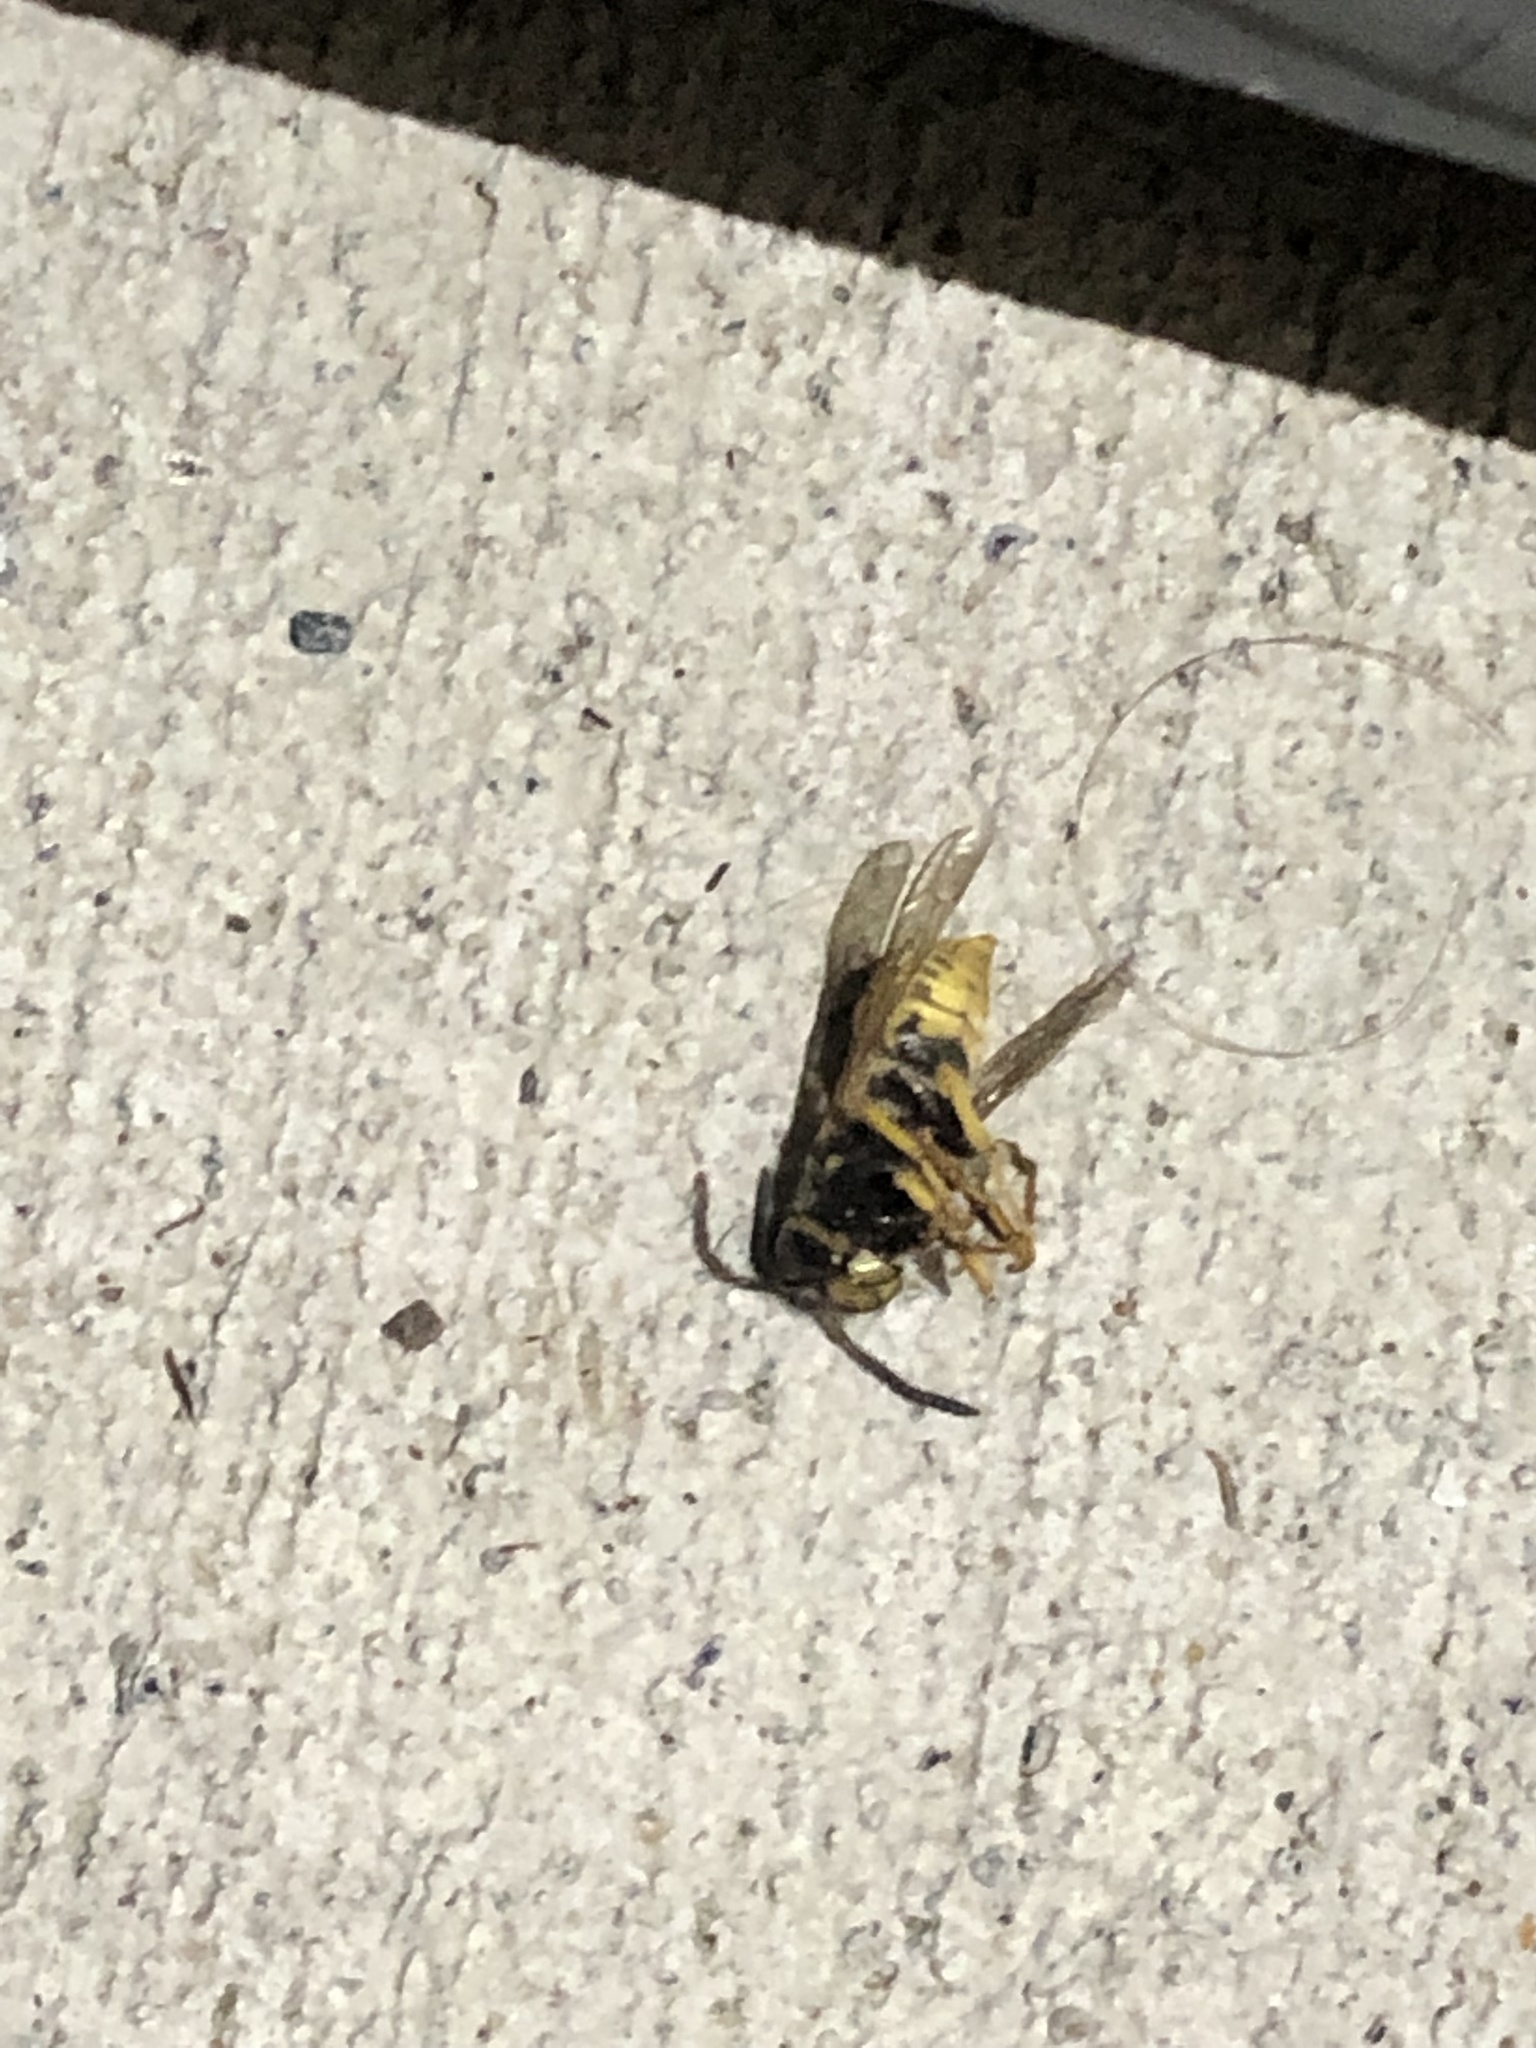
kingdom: Animalia
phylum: Arthropoda
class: Insecta
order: Hymenoptera
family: Vespidae
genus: Vespula
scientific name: Vespula
